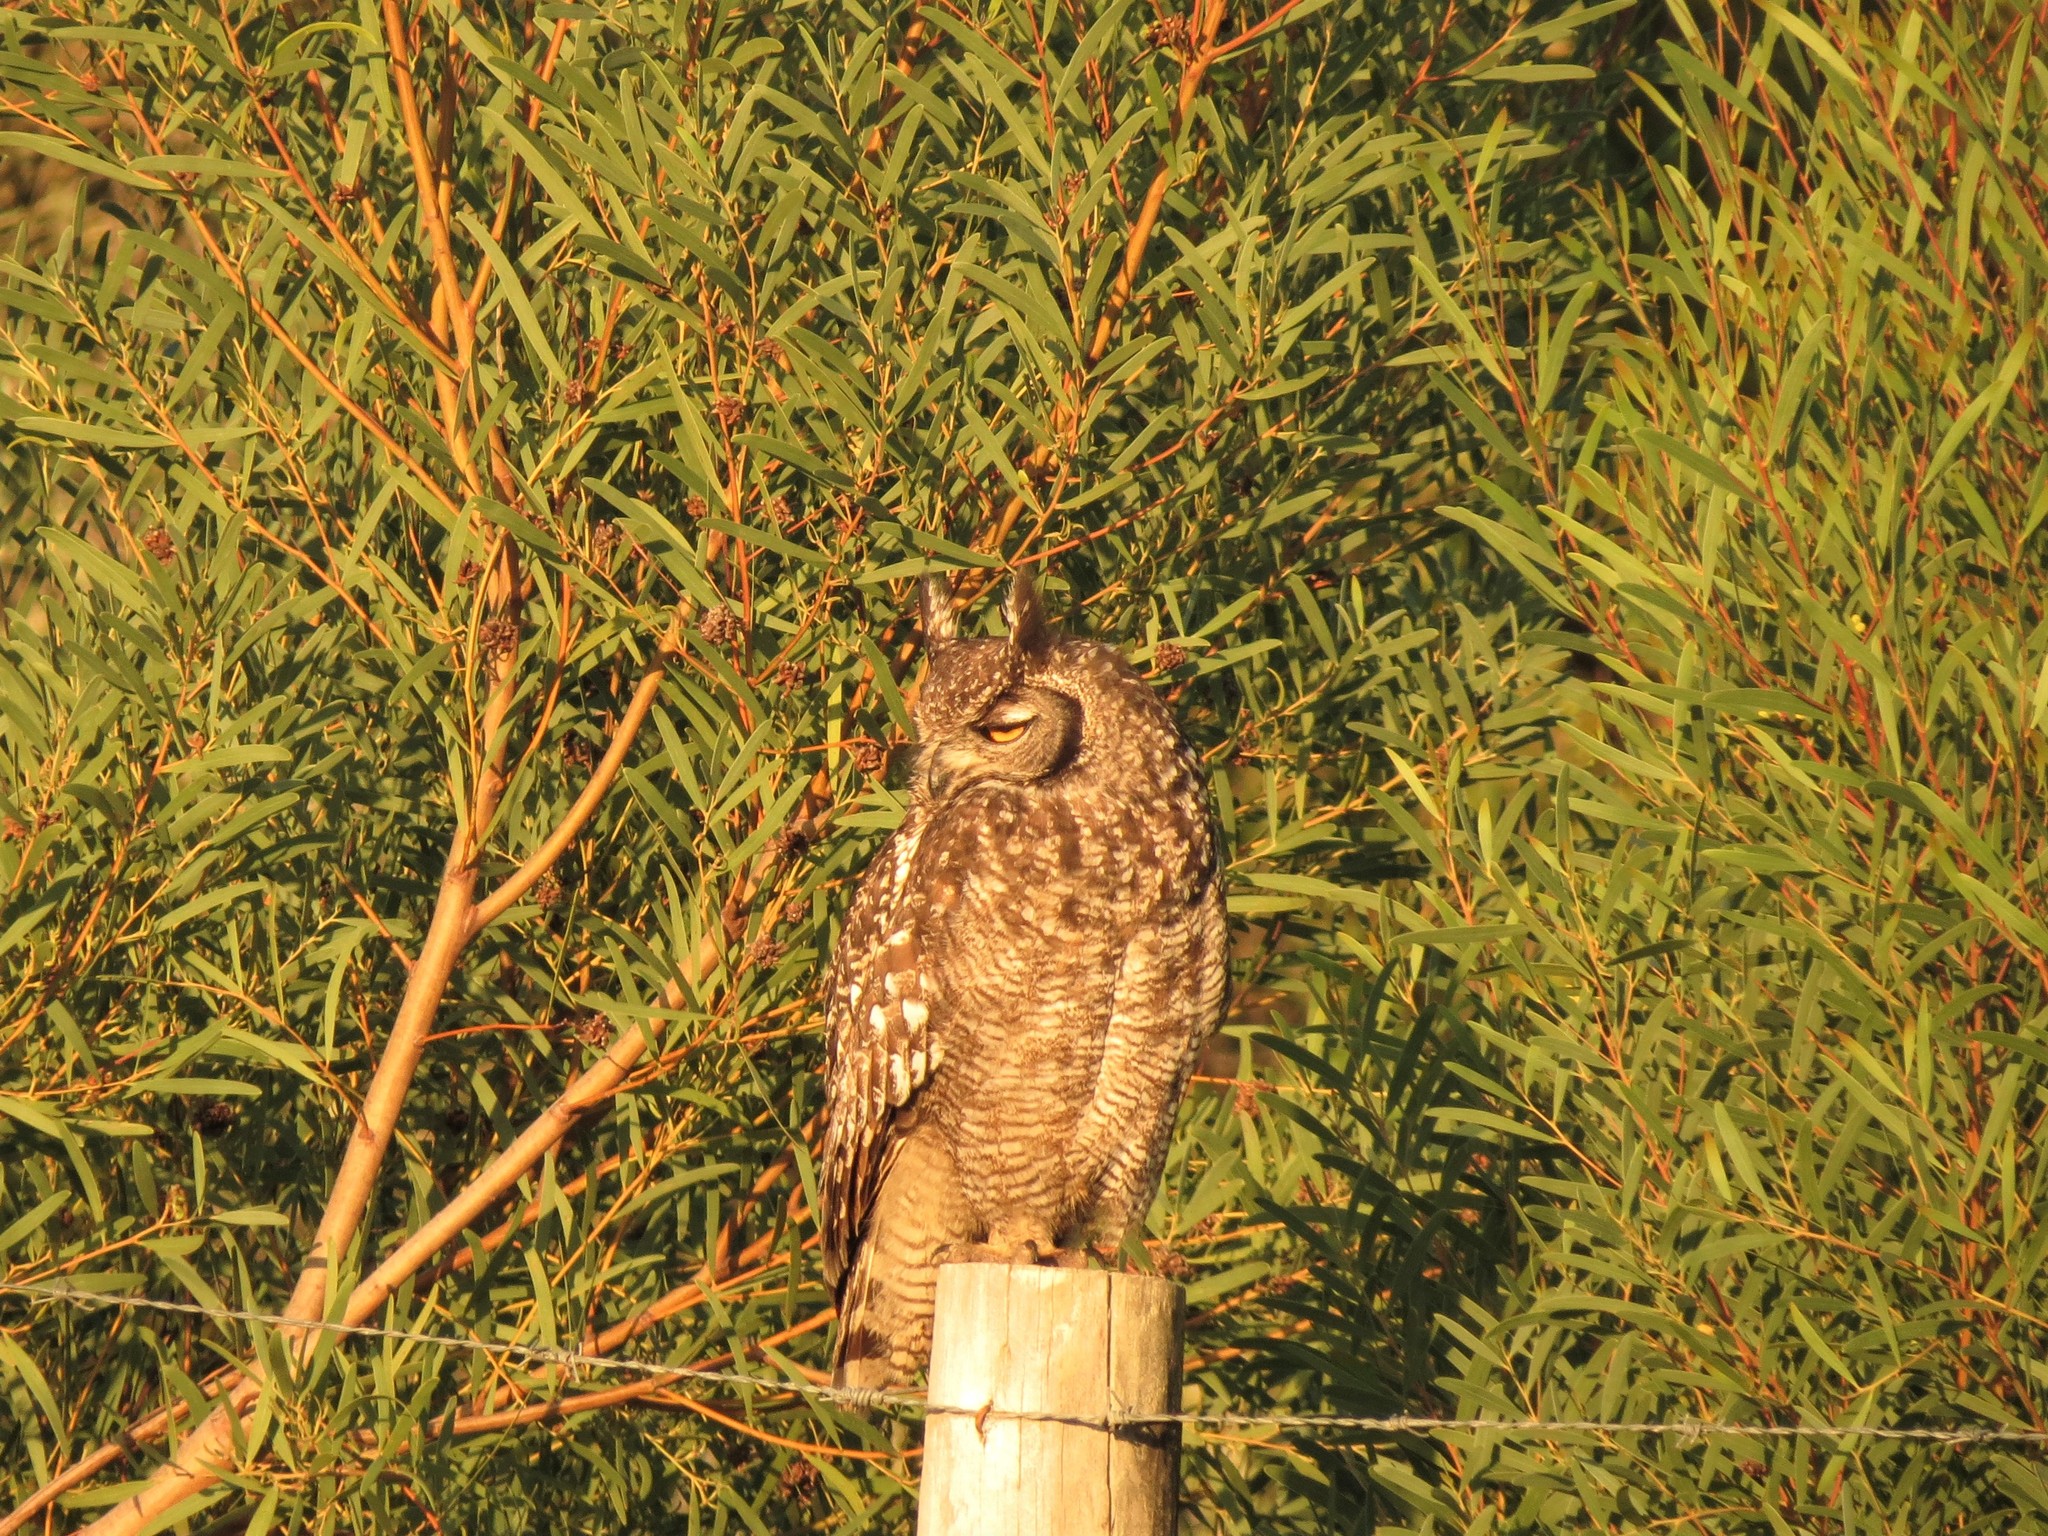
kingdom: Animalia
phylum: Chordata
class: Aves
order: Strigiformes
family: Strigidae
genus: Bubo
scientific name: Bubo africanus
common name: Spotted eagle-owl
